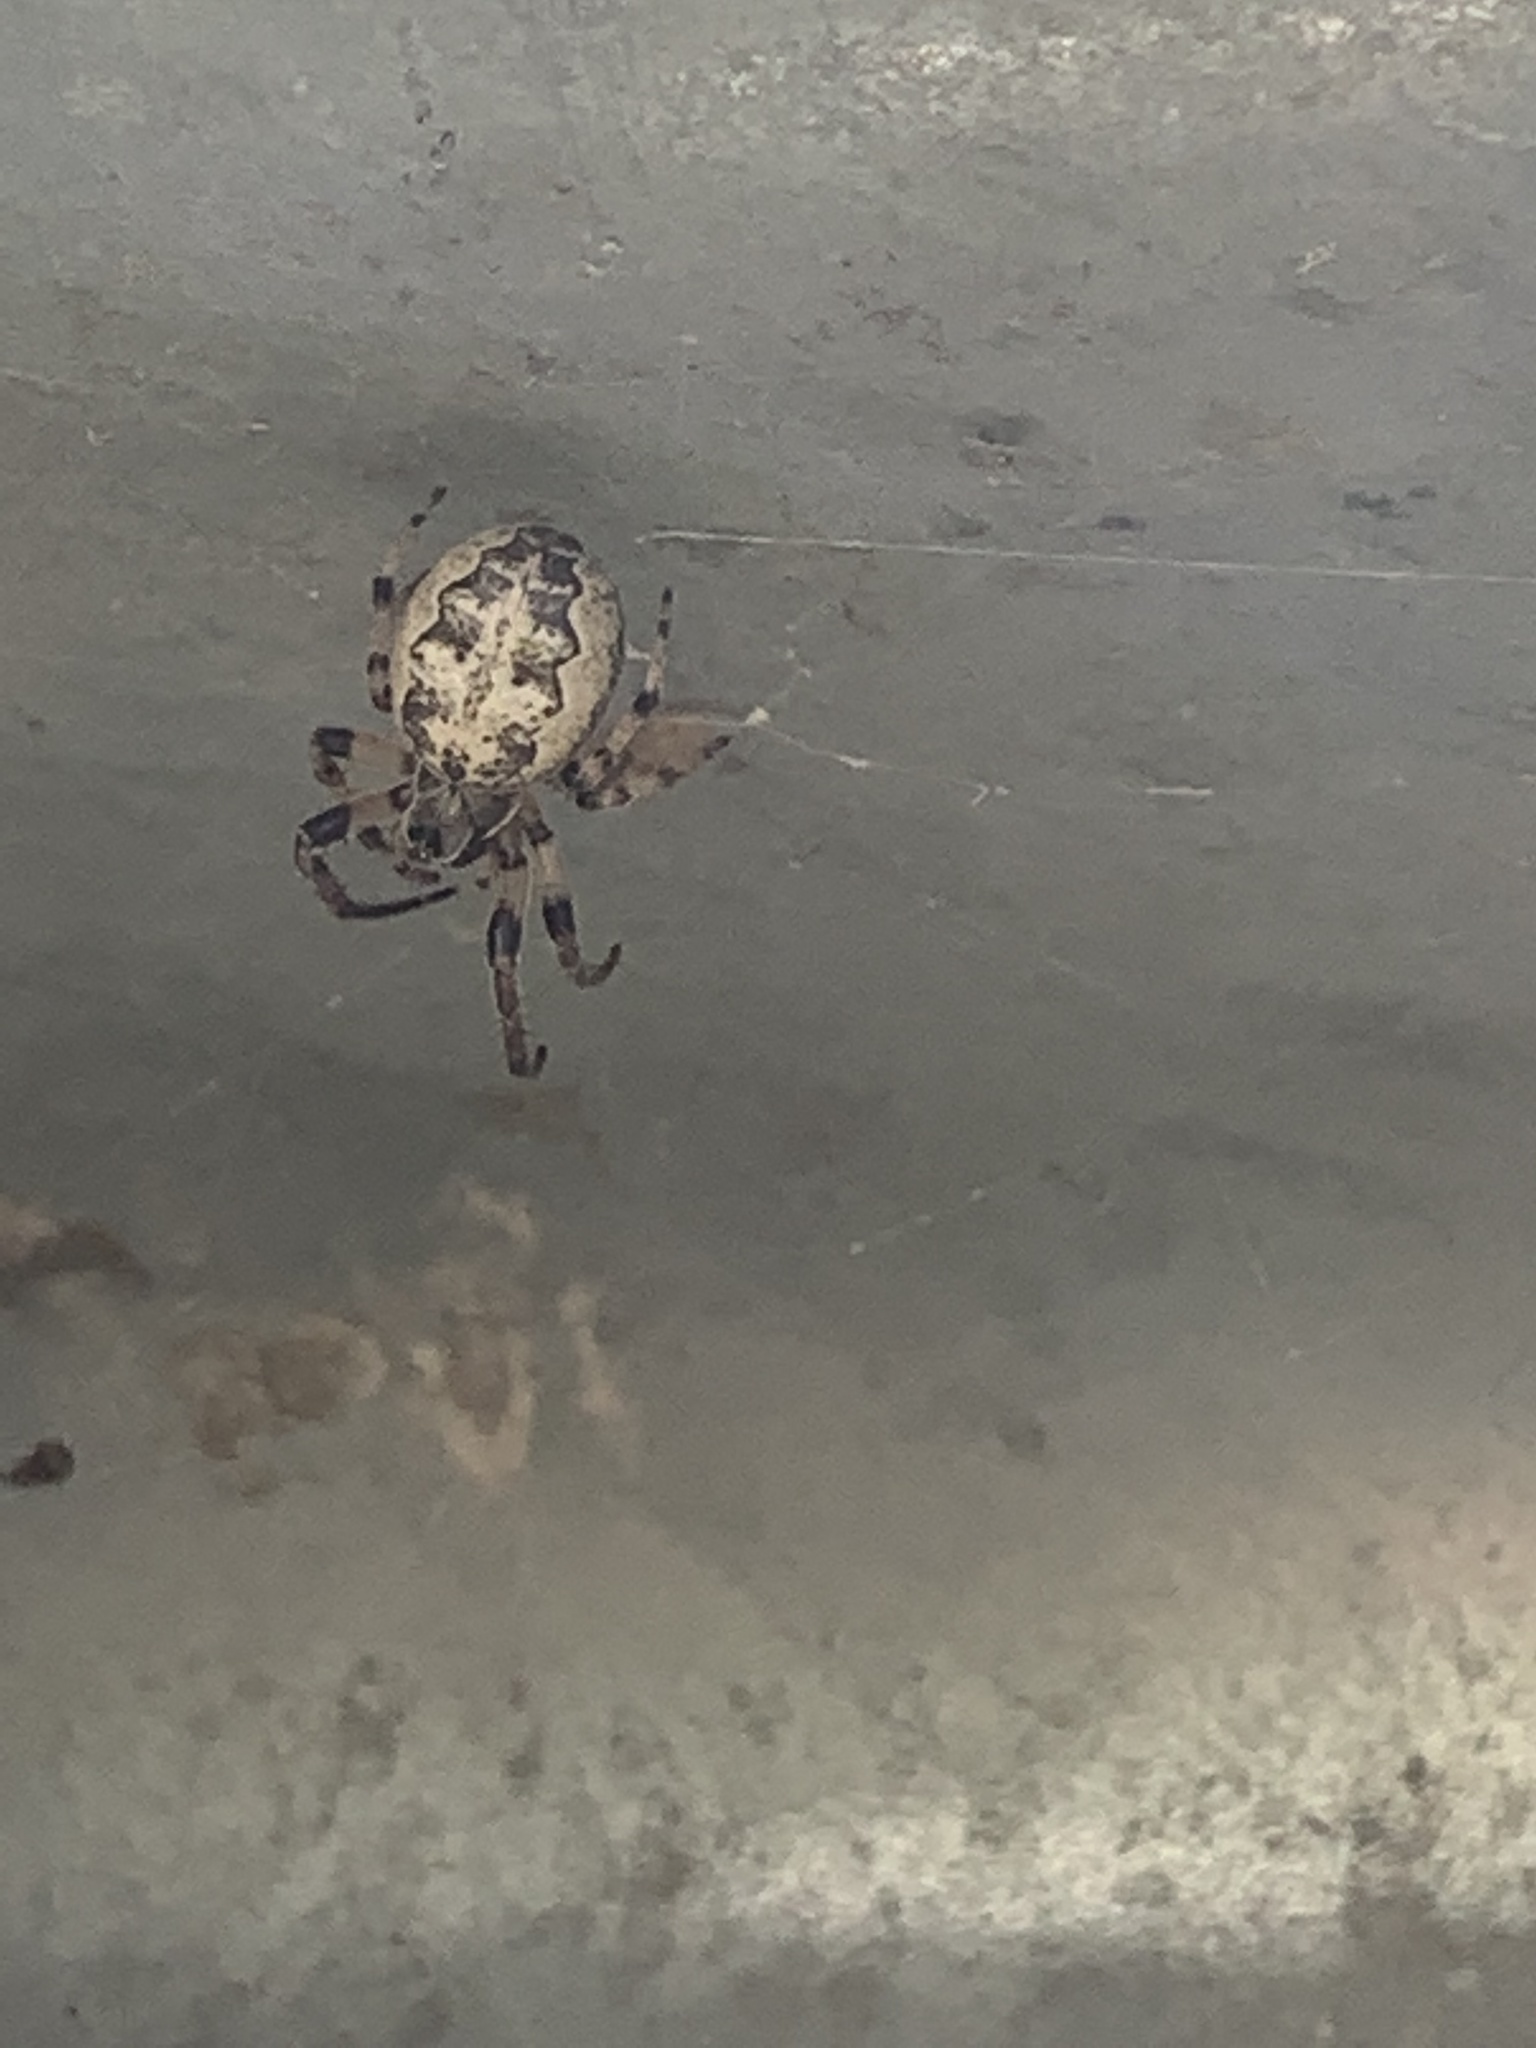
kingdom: Animalia
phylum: Arthropoda
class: Arachnida
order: Araneae
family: Araneidae
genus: Larinioides
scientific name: Larinioides cornutus
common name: Furrow orbweaver
